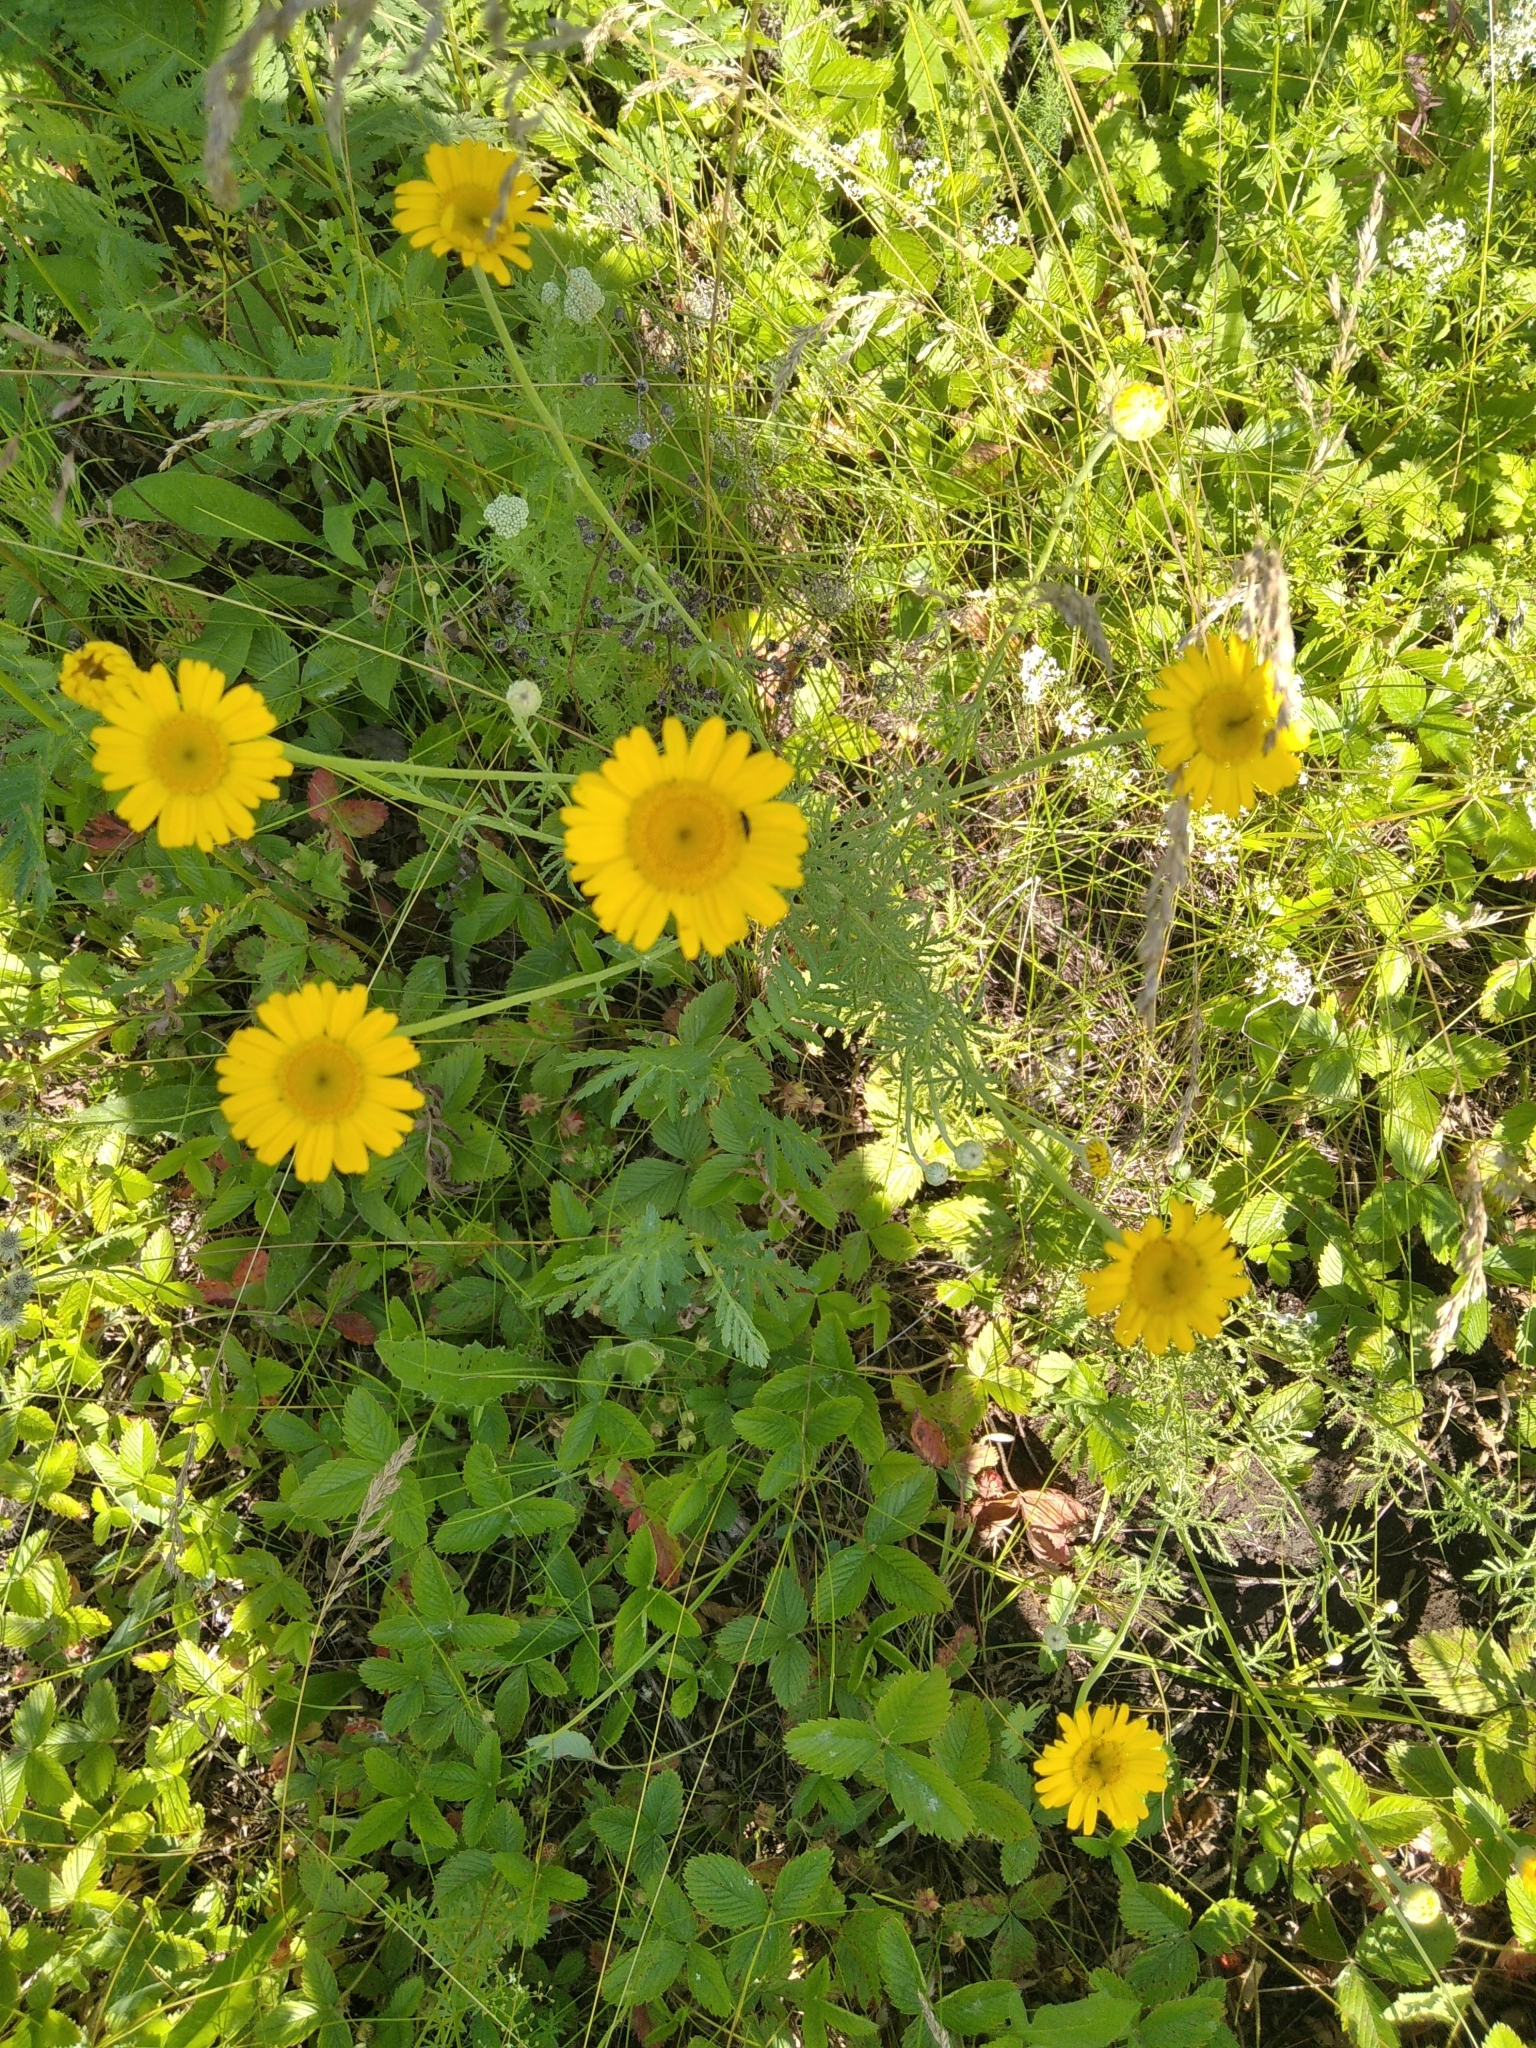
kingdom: Plantae
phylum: Tracheophyta
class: Magnoliopsida
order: Asterales
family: Asteraceae
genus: Cota
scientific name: Cota tinctoria
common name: Golden chamomile
